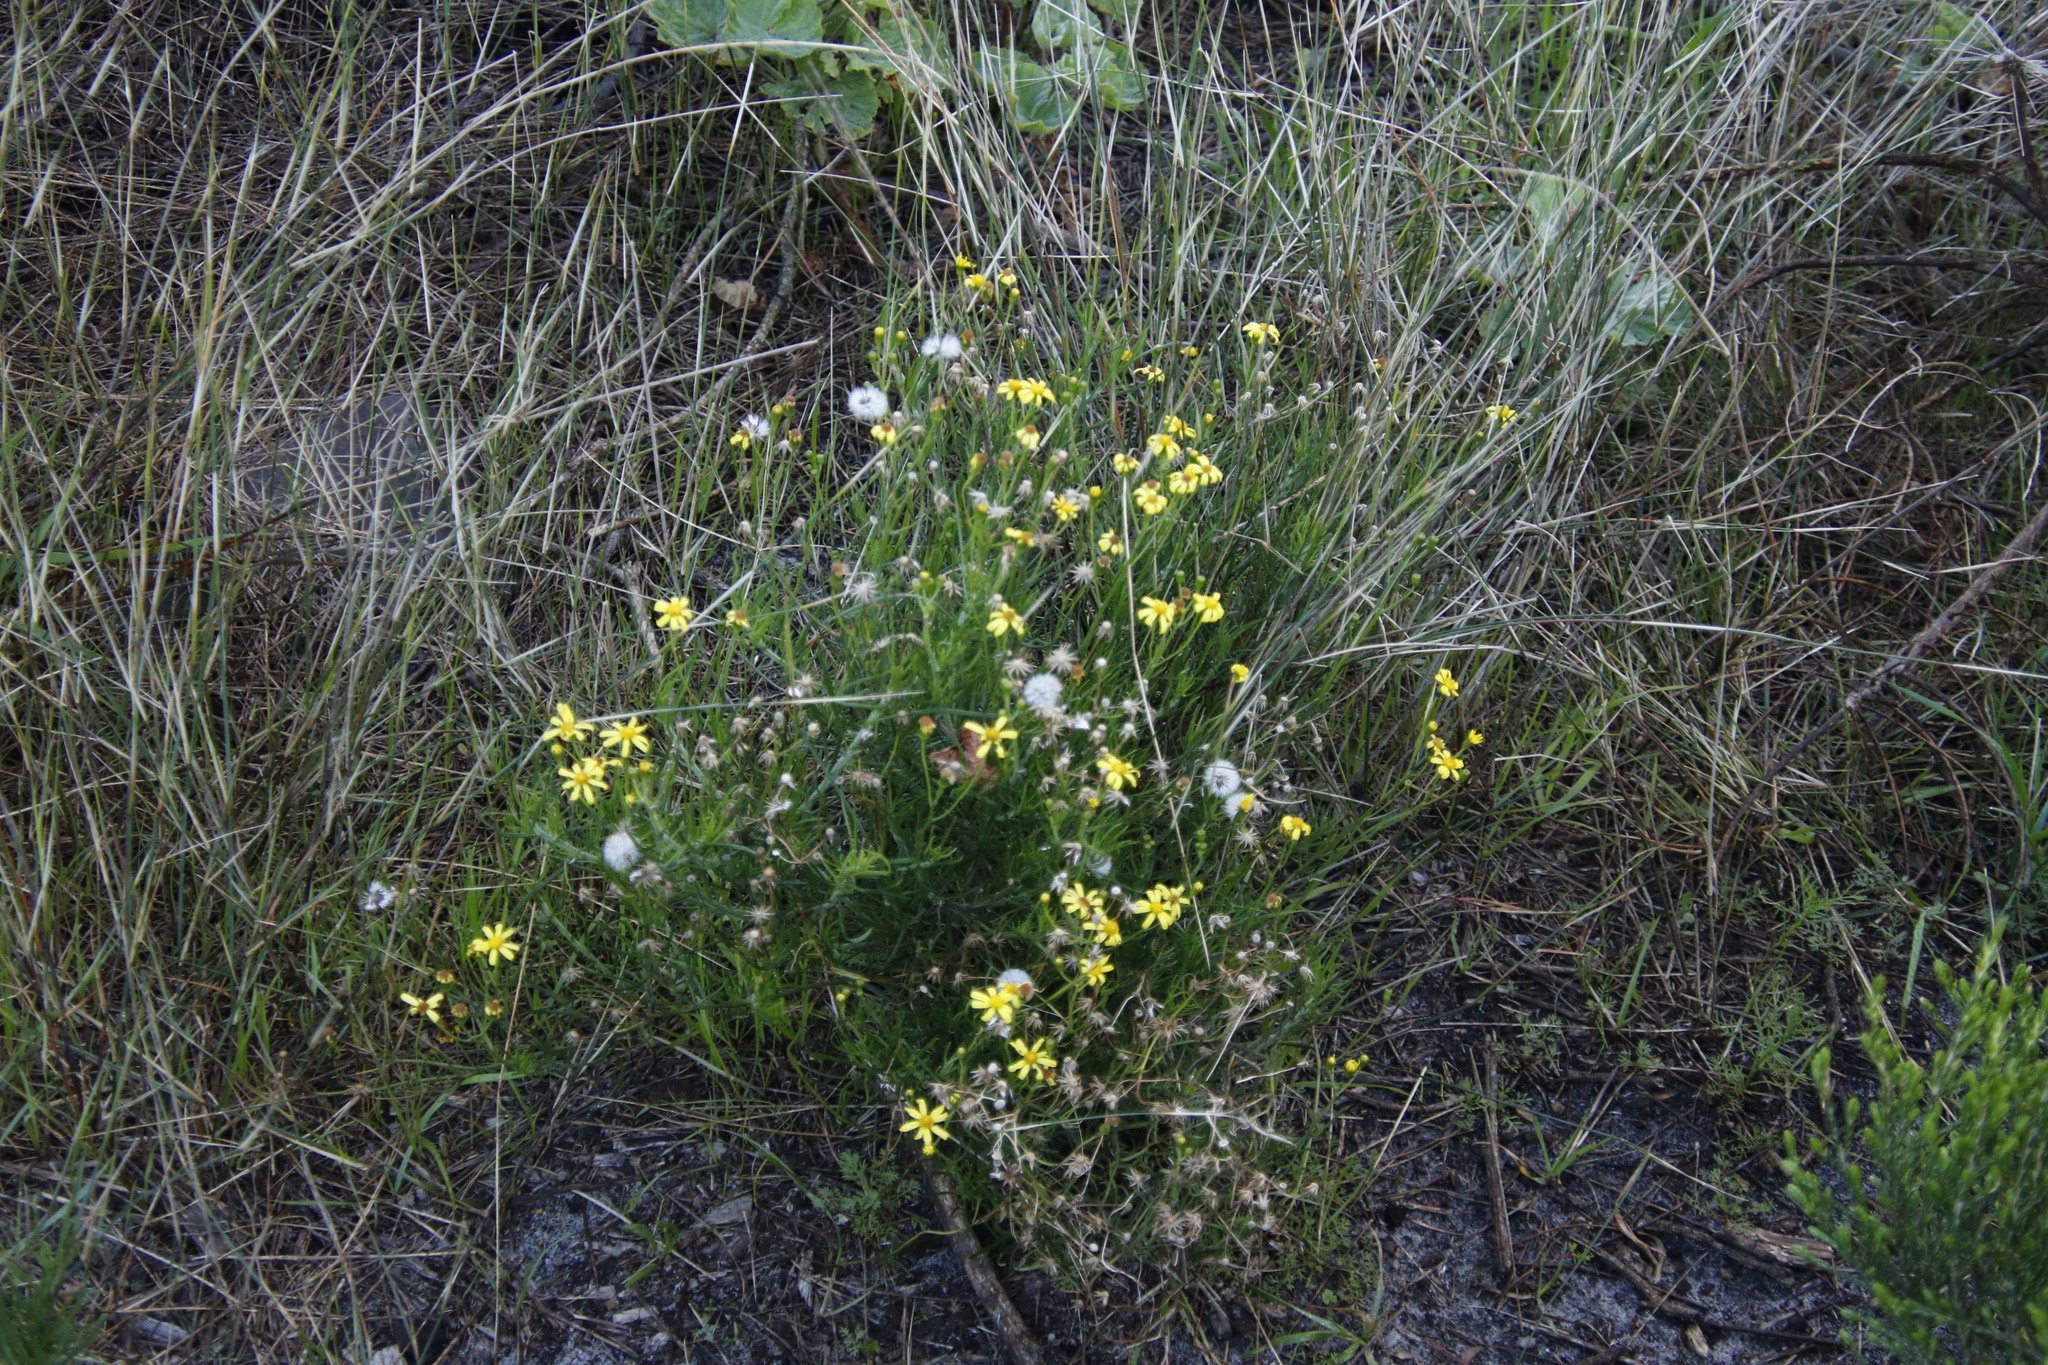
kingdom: Plantae
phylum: Tracheophyta
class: Magnoliopsida
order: Asterales
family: Asteraceae
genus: Senecio
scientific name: Senecio burchellii
